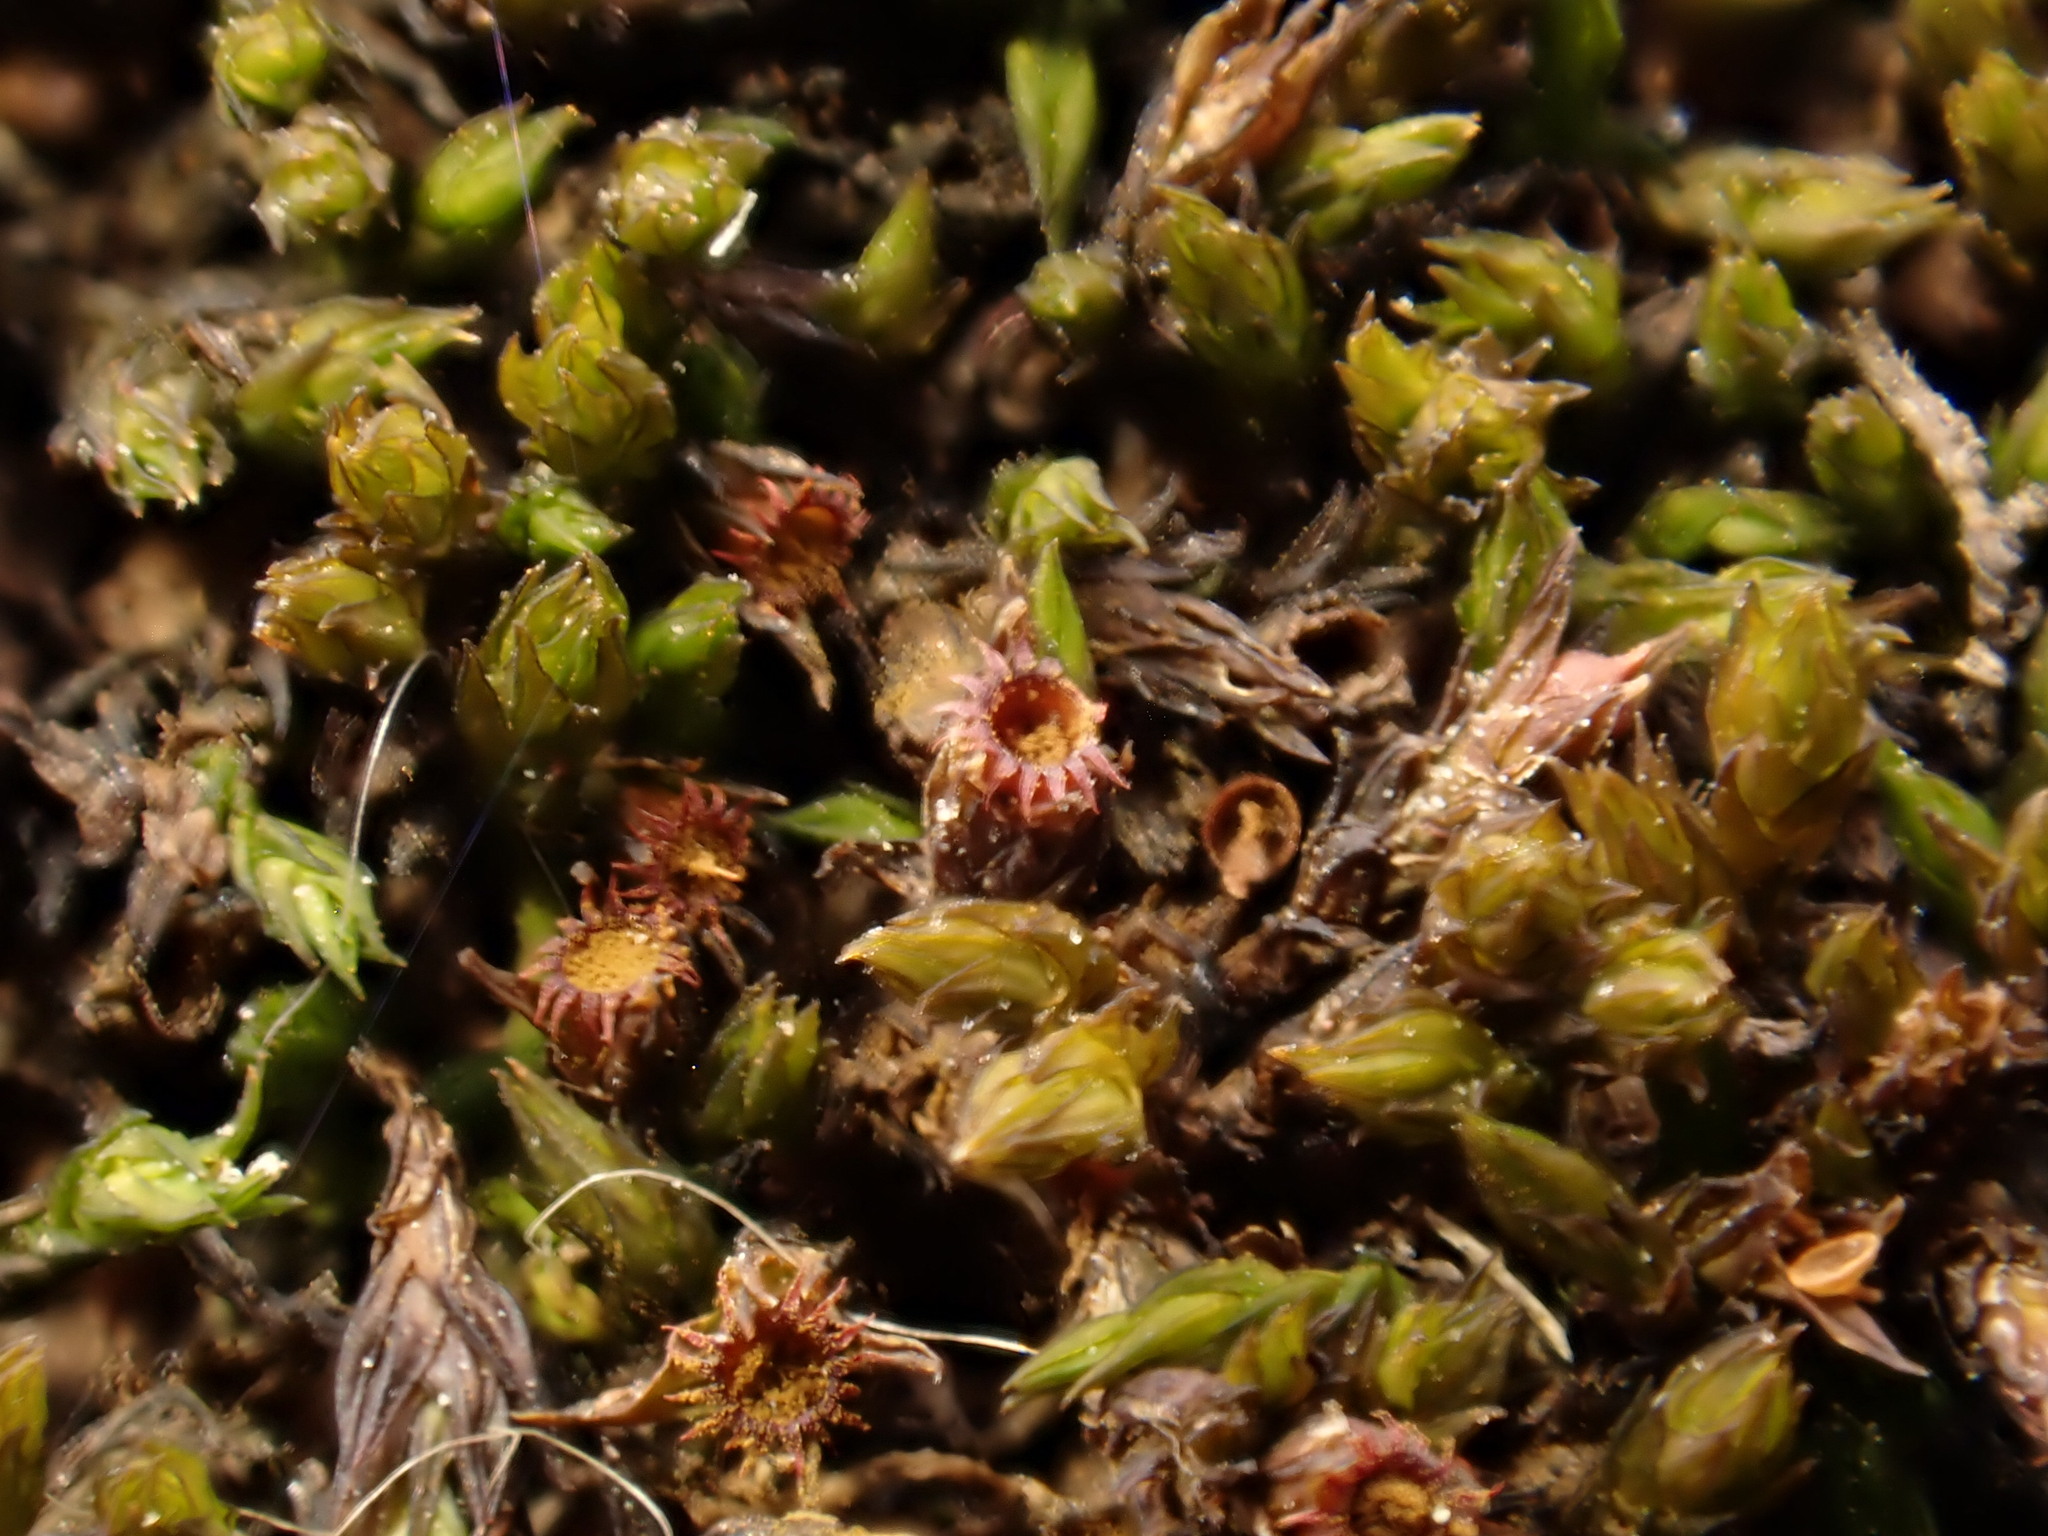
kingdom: Plantae
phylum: Bryophyta
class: Bryopsida
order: Grimmiales
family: Grimmiaceae
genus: Schistidium
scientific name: Schistidium apocarpum
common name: Radiate bloom moss
